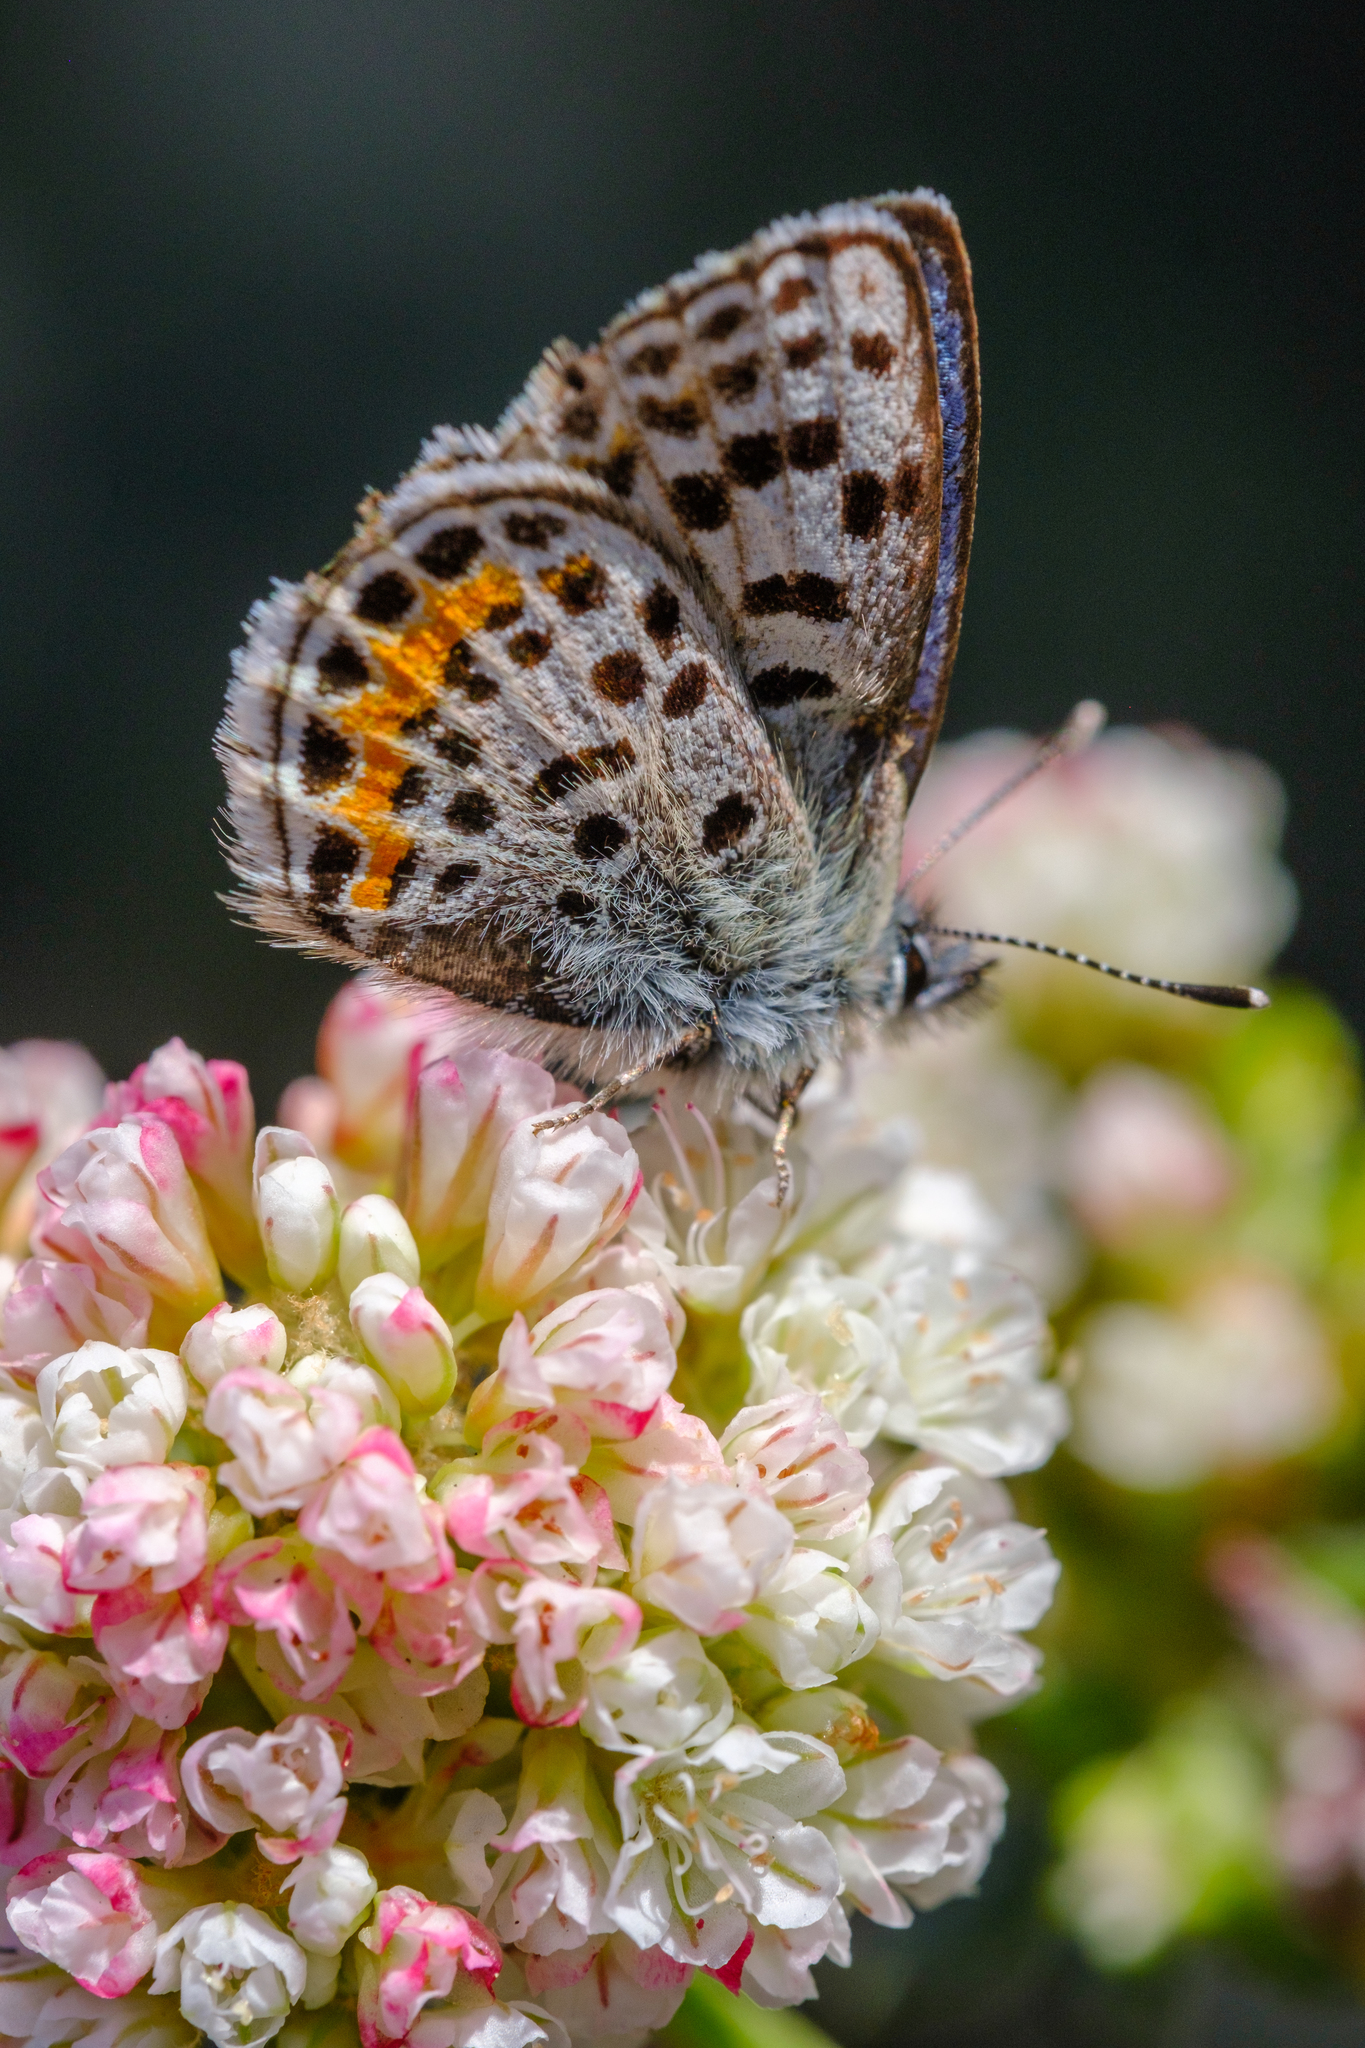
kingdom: Animalia
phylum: Arthropoda
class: Insecta
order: Lepidoptera
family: Lycaenidae
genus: Euphilotes
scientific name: Euphilotes battoides
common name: Square-spotted blue
